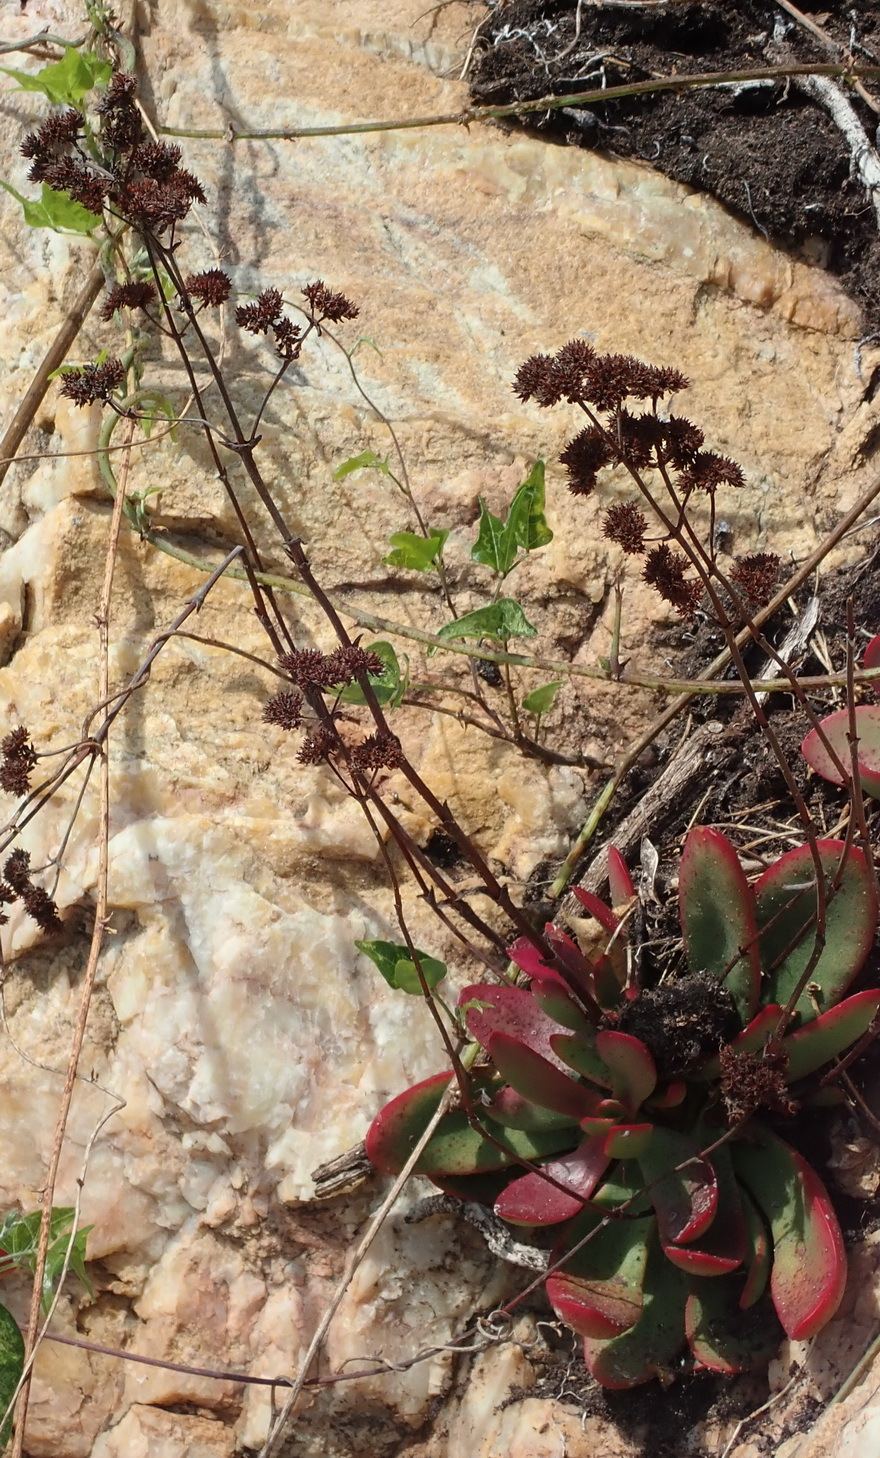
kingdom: Plantae
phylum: Tracheophyta
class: Magnoliopsida
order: Saxifragales
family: Crassulaceae
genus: Crassula
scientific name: Crassula atropurpurea
